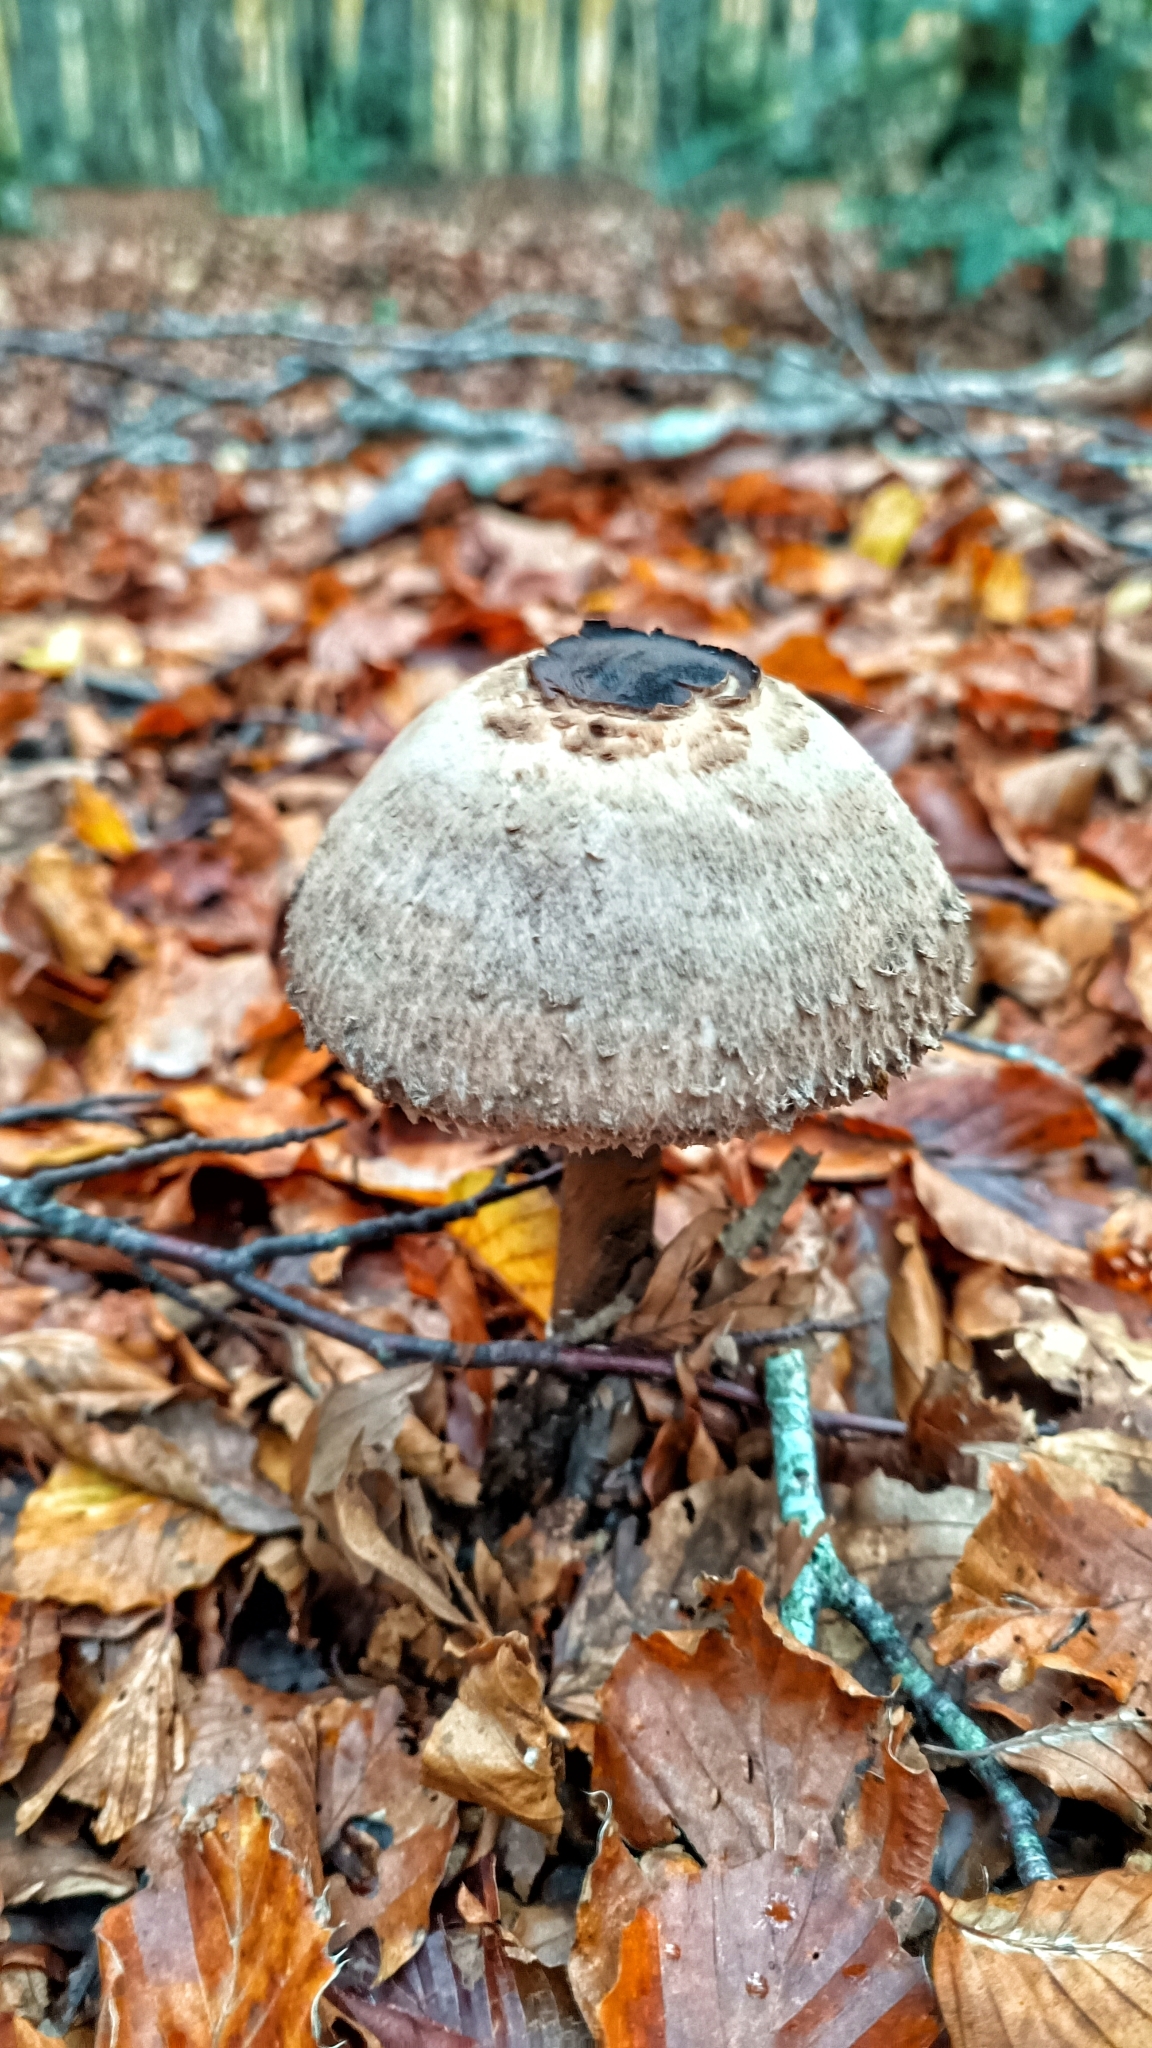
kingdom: Fungi
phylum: Basidiomycota
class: Agaricomycetes
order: Agaricales
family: Agaricaceae
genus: Macrolepiota
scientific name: Macrolepiota procera
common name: Parasol
